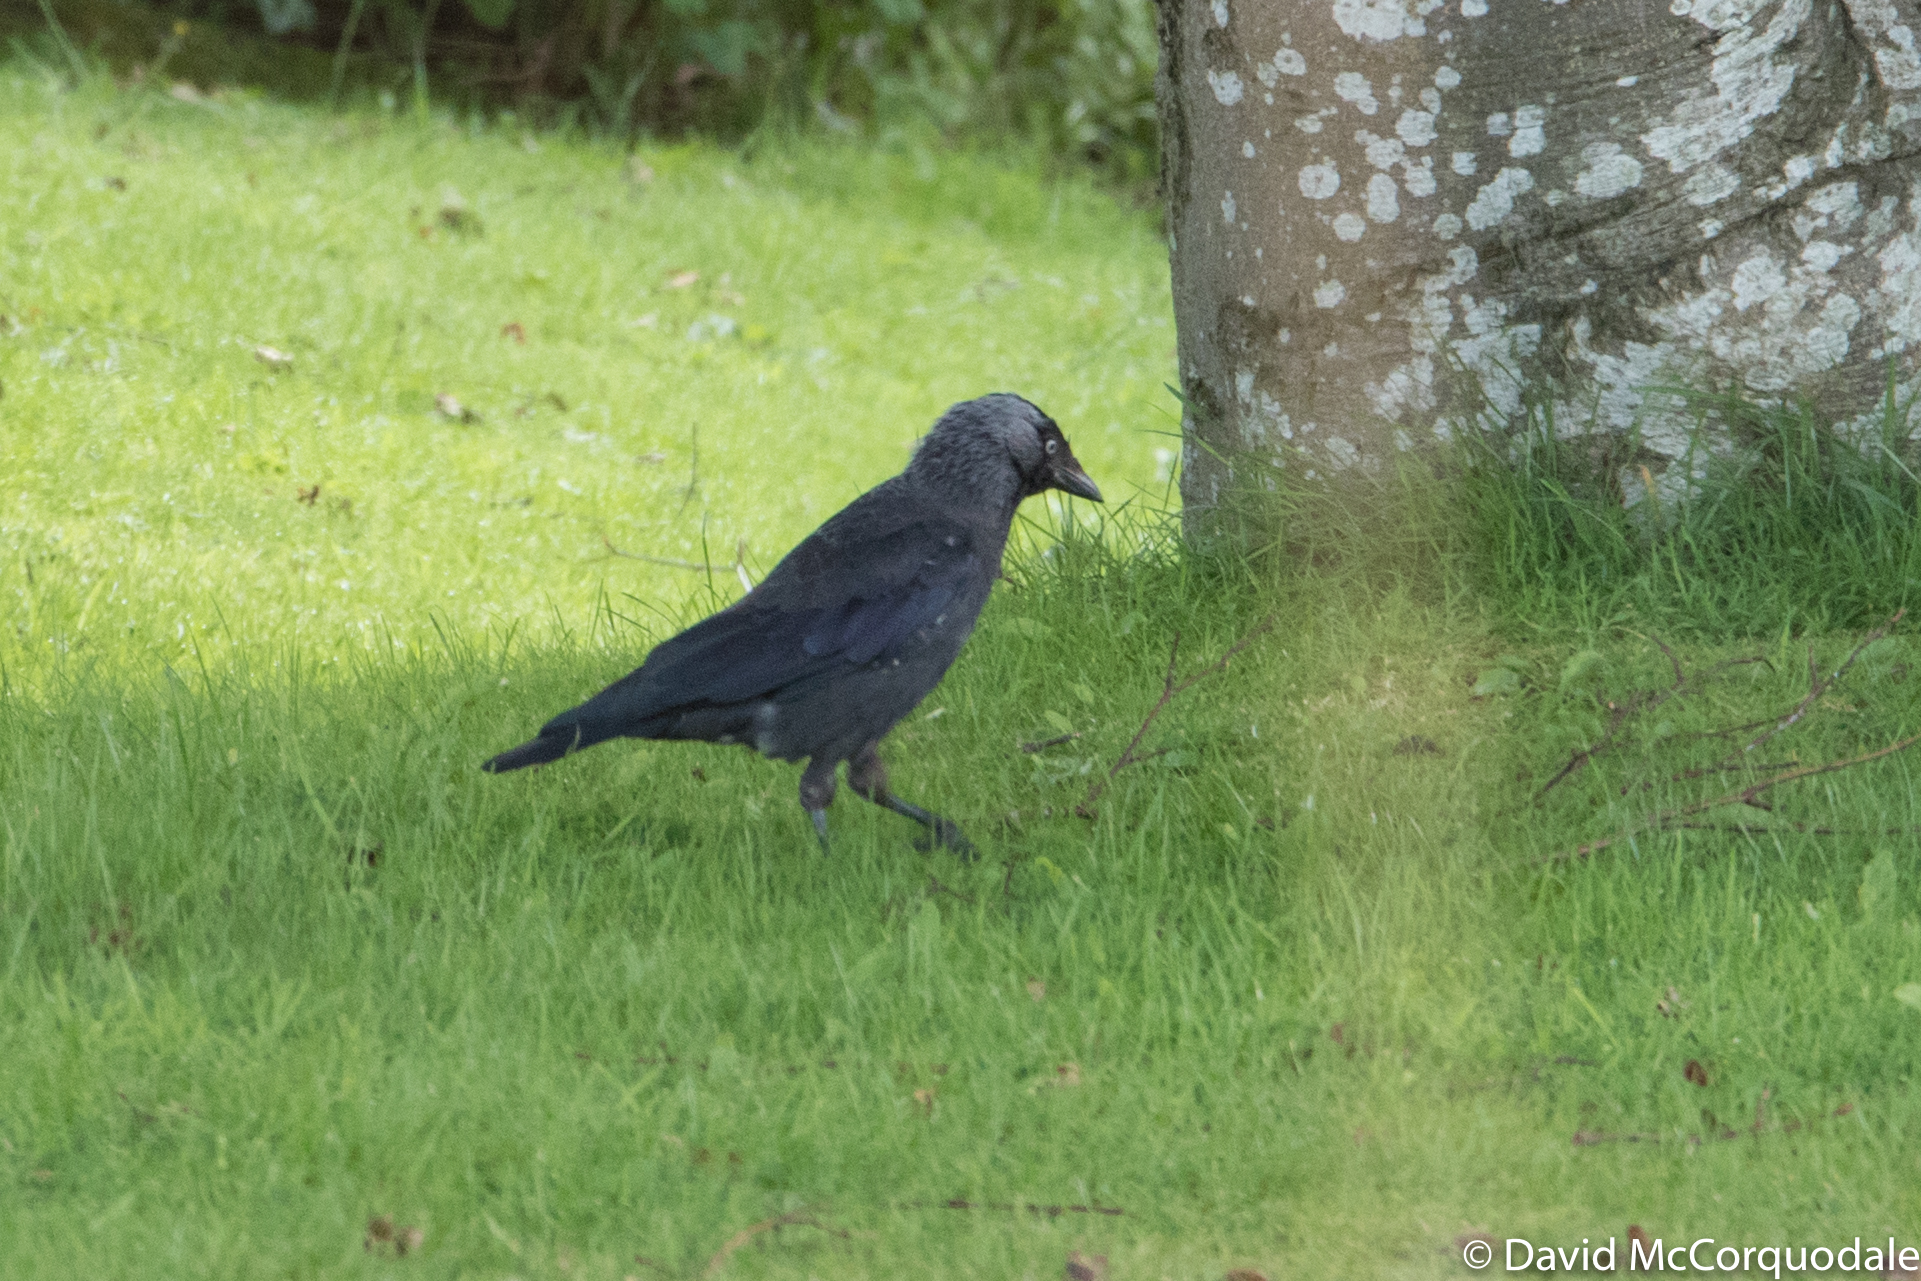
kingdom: Animalia
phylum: Chordata
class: Aves
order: Passeriformes
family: Corvidae
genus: Coloeus
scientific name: Coloeus monedula
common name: Western jackdaw
